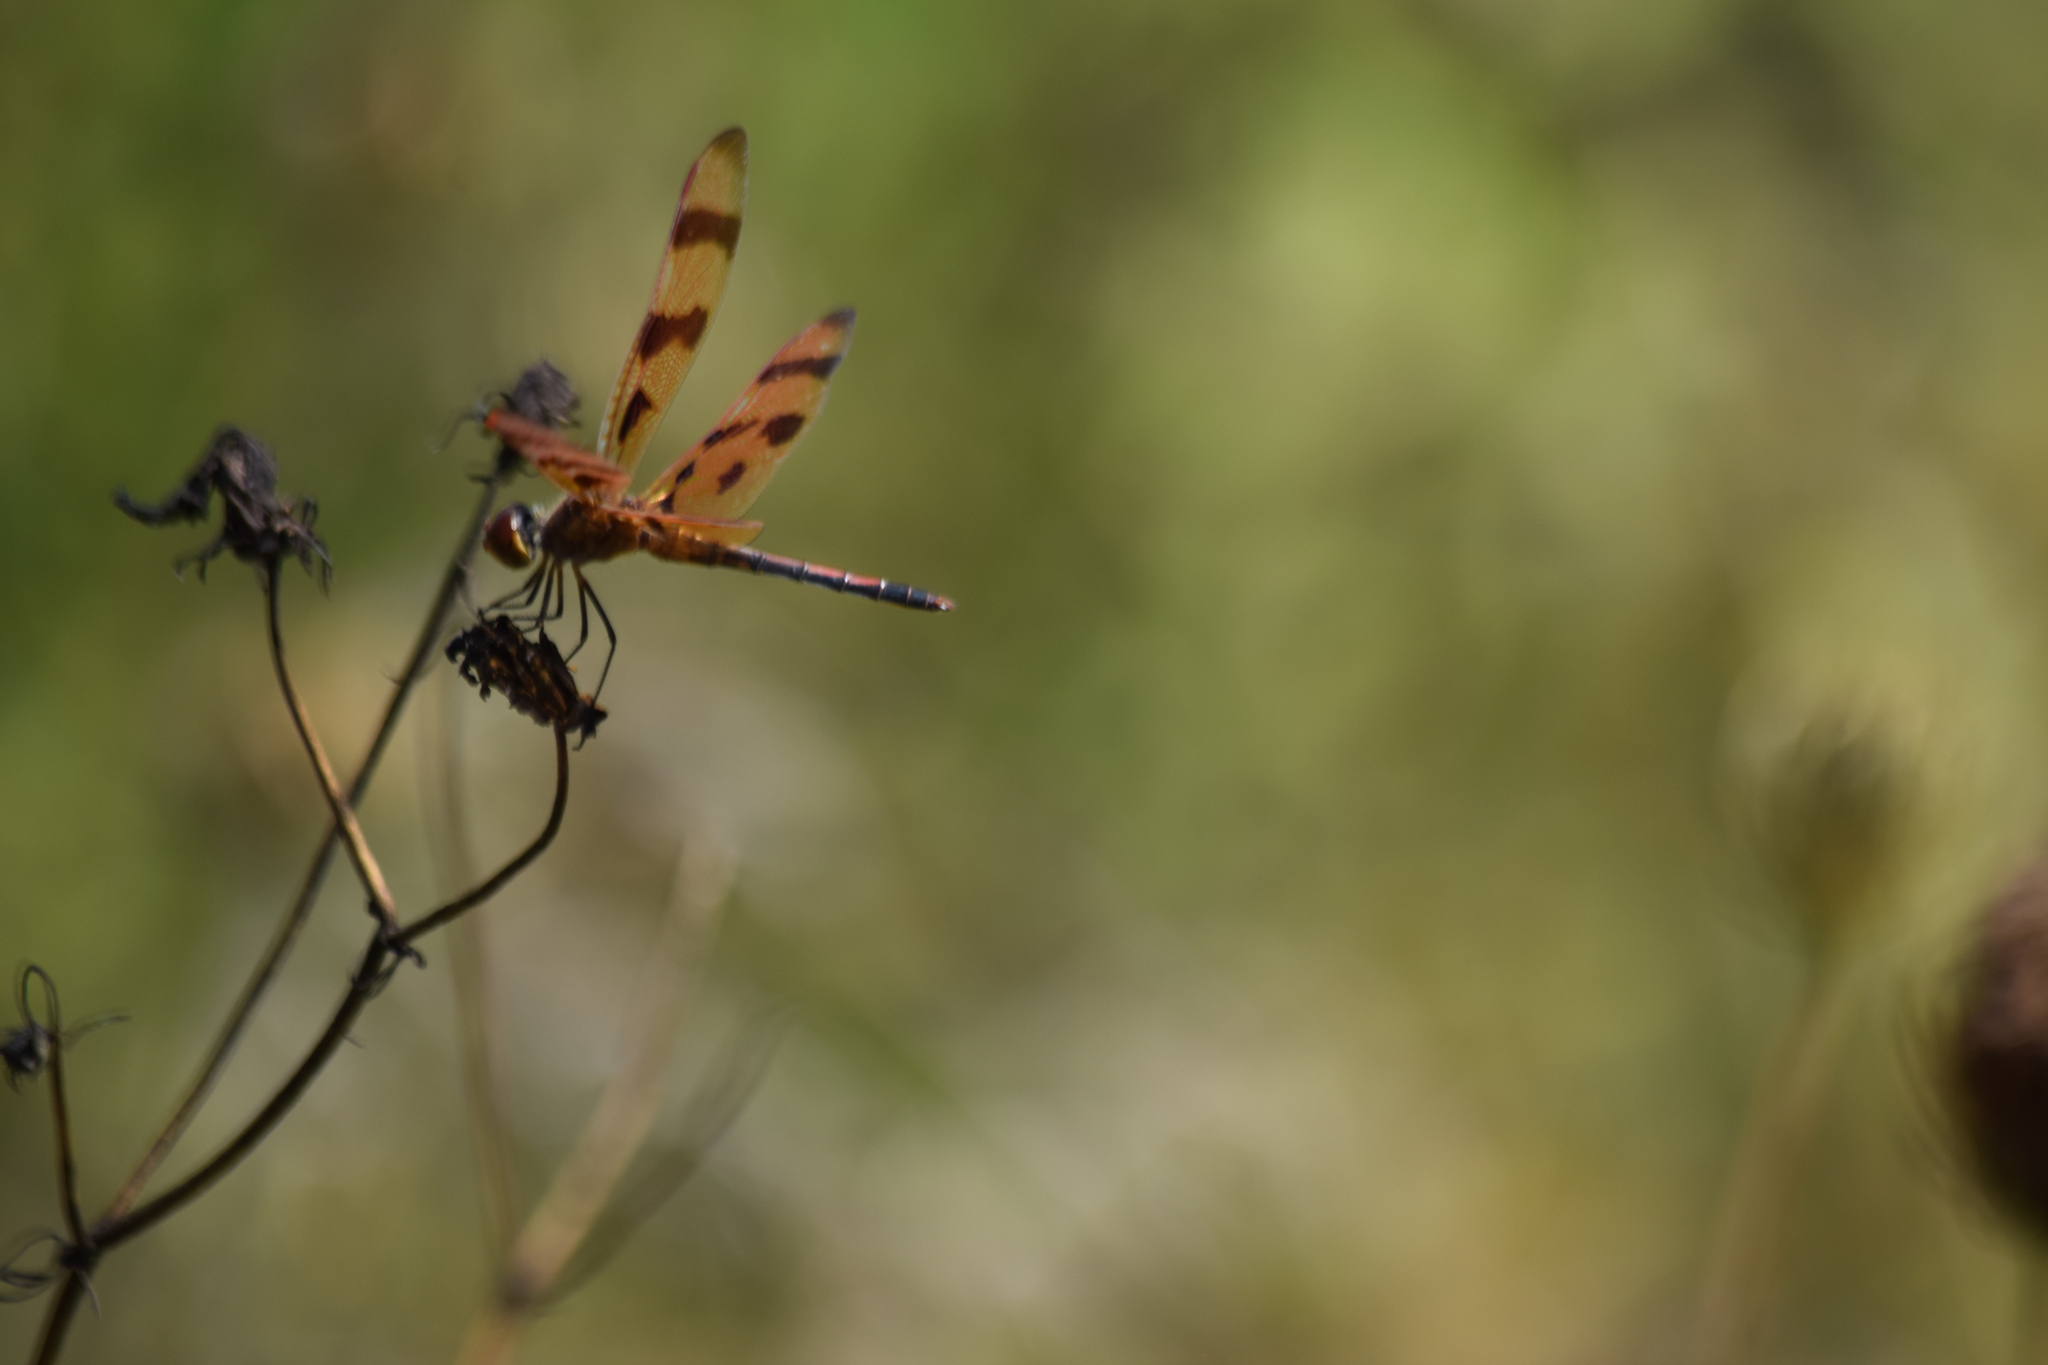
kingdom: Animalia
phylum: Arthropoda
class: Insecta
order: Odonata
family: Libellulidae
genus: Celithemis
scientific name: Celithemis eponina
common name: Halloween pennant
